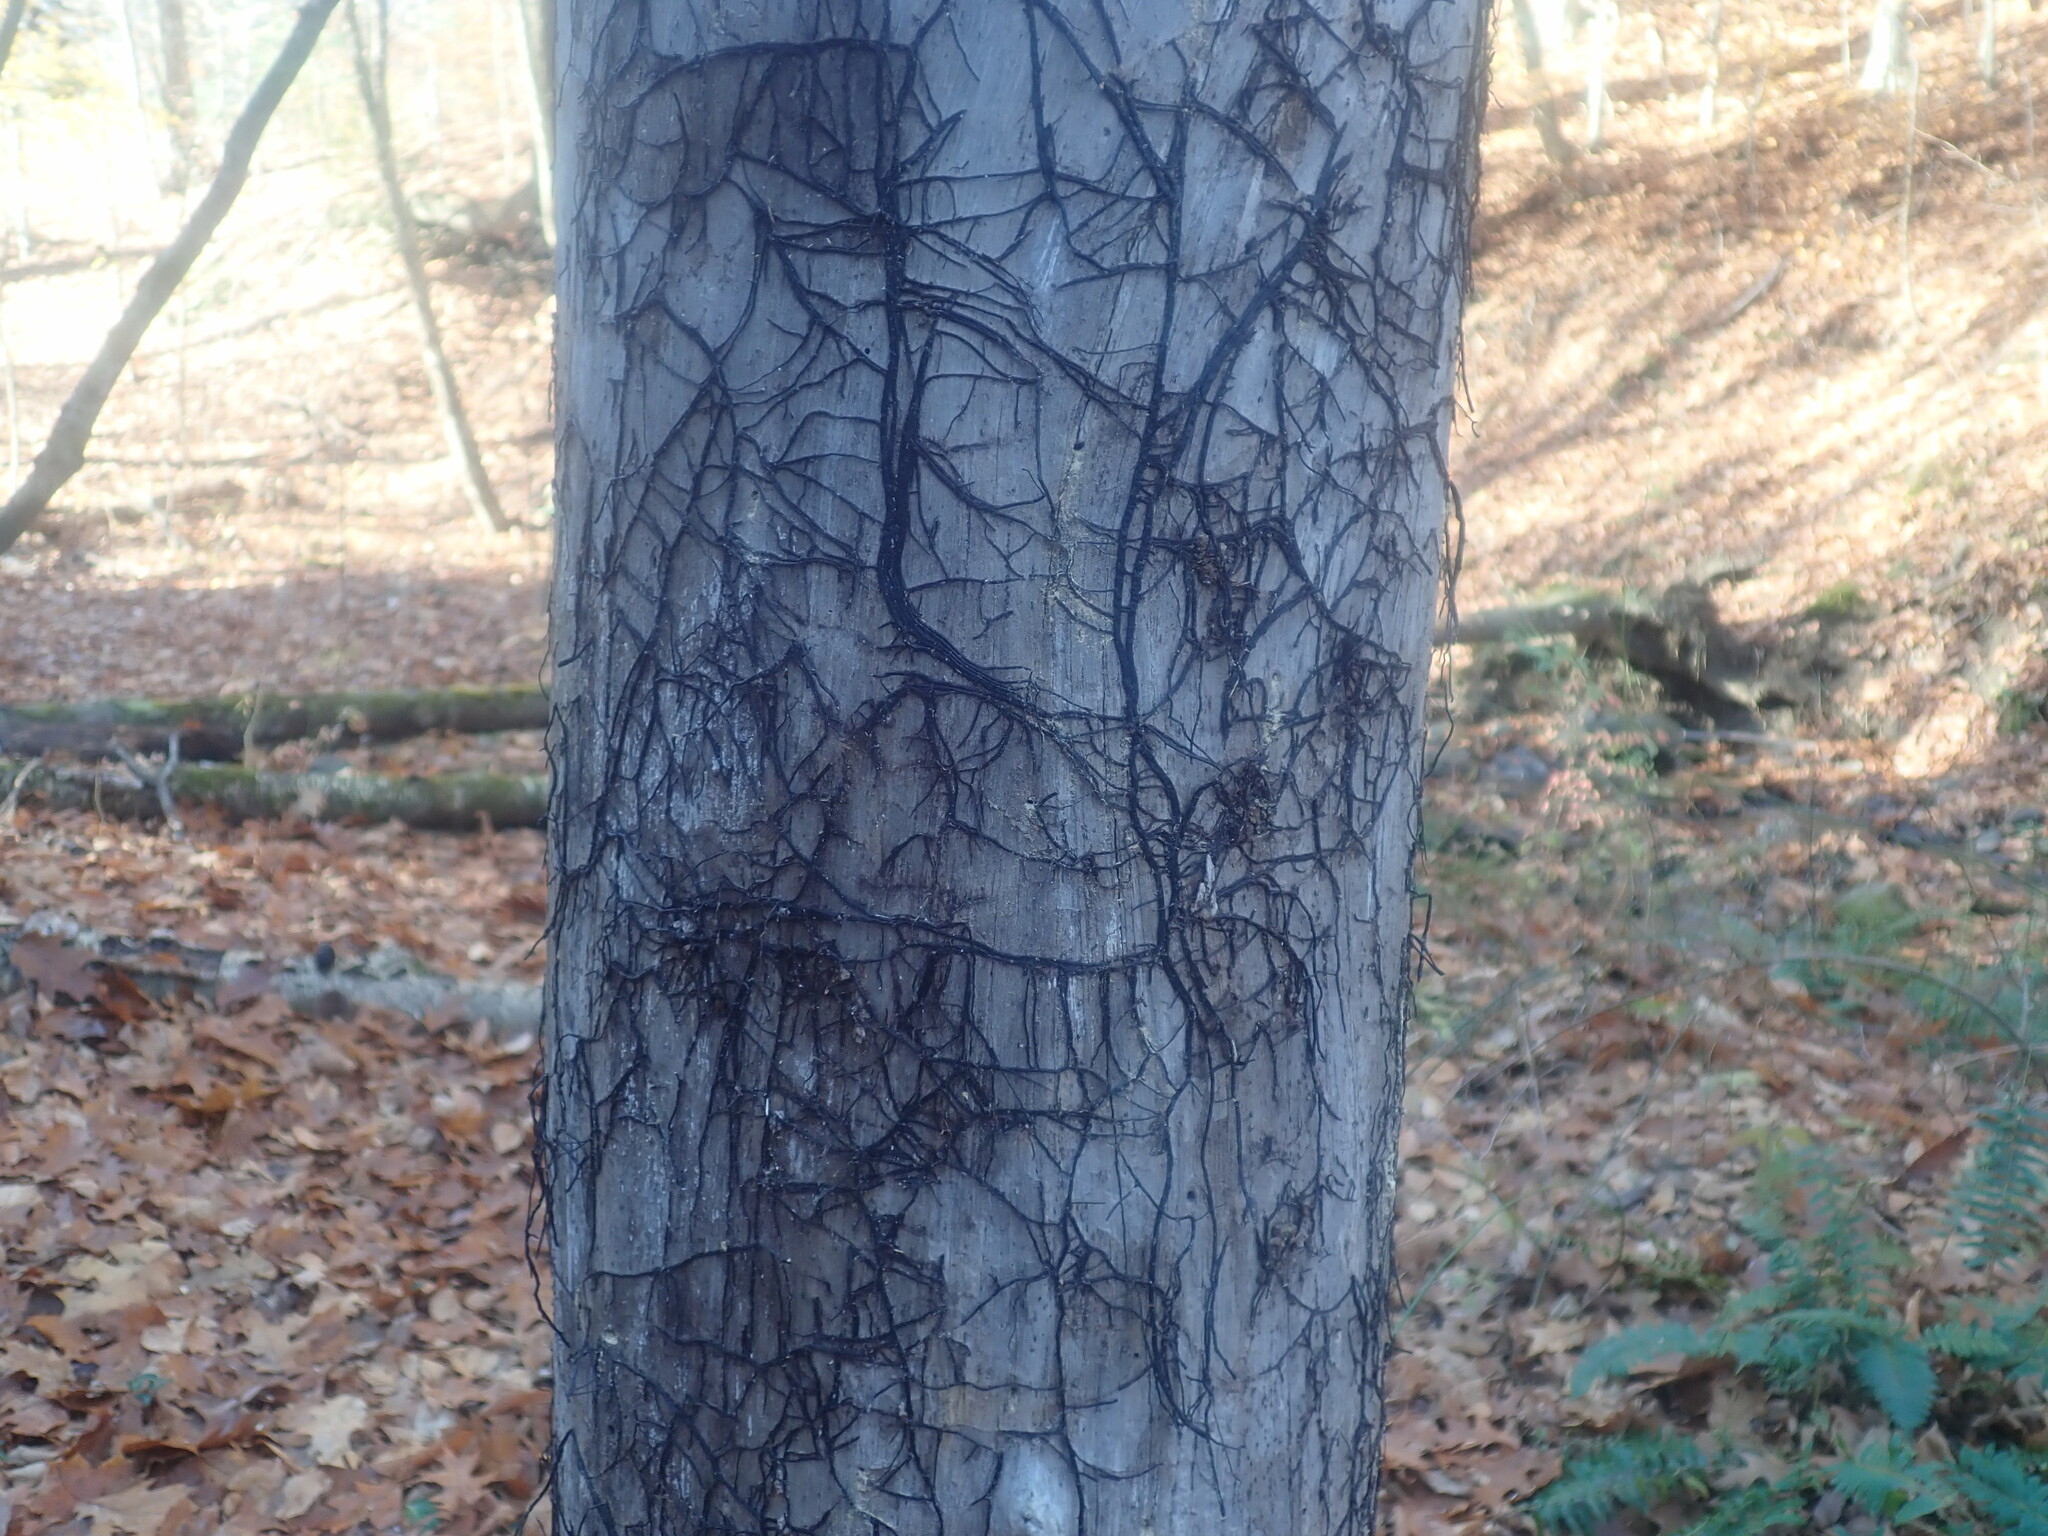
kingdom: Fungi
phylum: Basidiomycota
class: Agaricomycetes
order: Agaricales
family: Physalacriaceae
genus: Armillaria
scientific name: Armillaria
